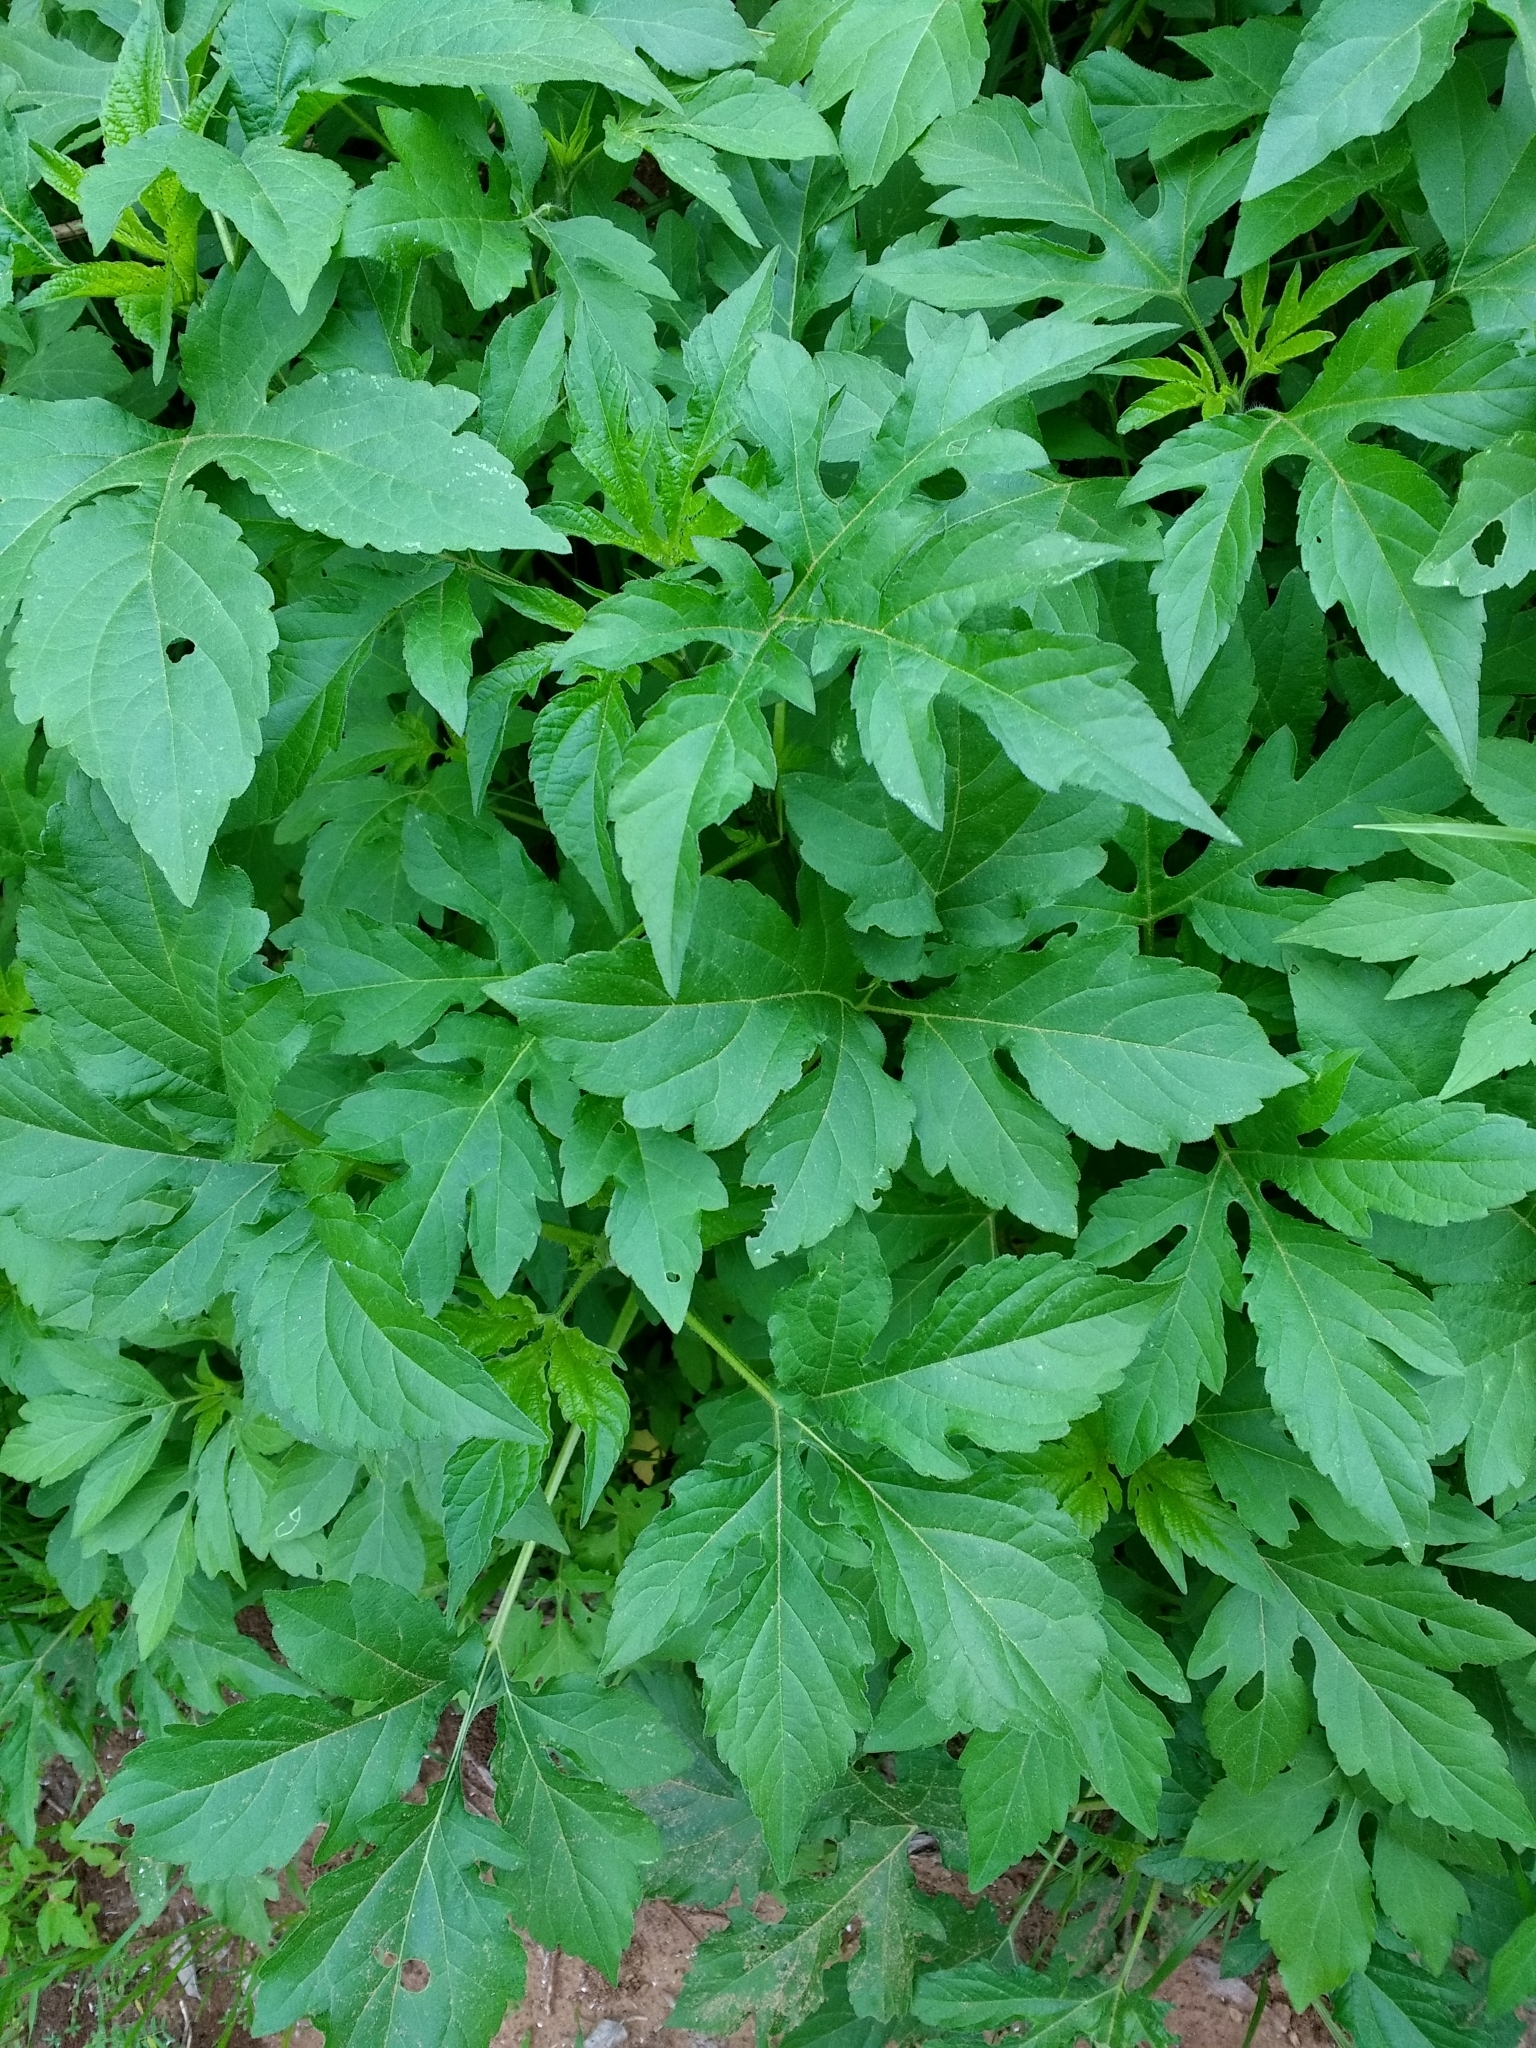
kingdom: Plantae
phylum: Tracheophyta
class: Magnoliopsida
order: Asterales
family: Asteraceae
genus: Ambrosia
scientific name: Ambrosia trifida
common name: Giant ragweed
